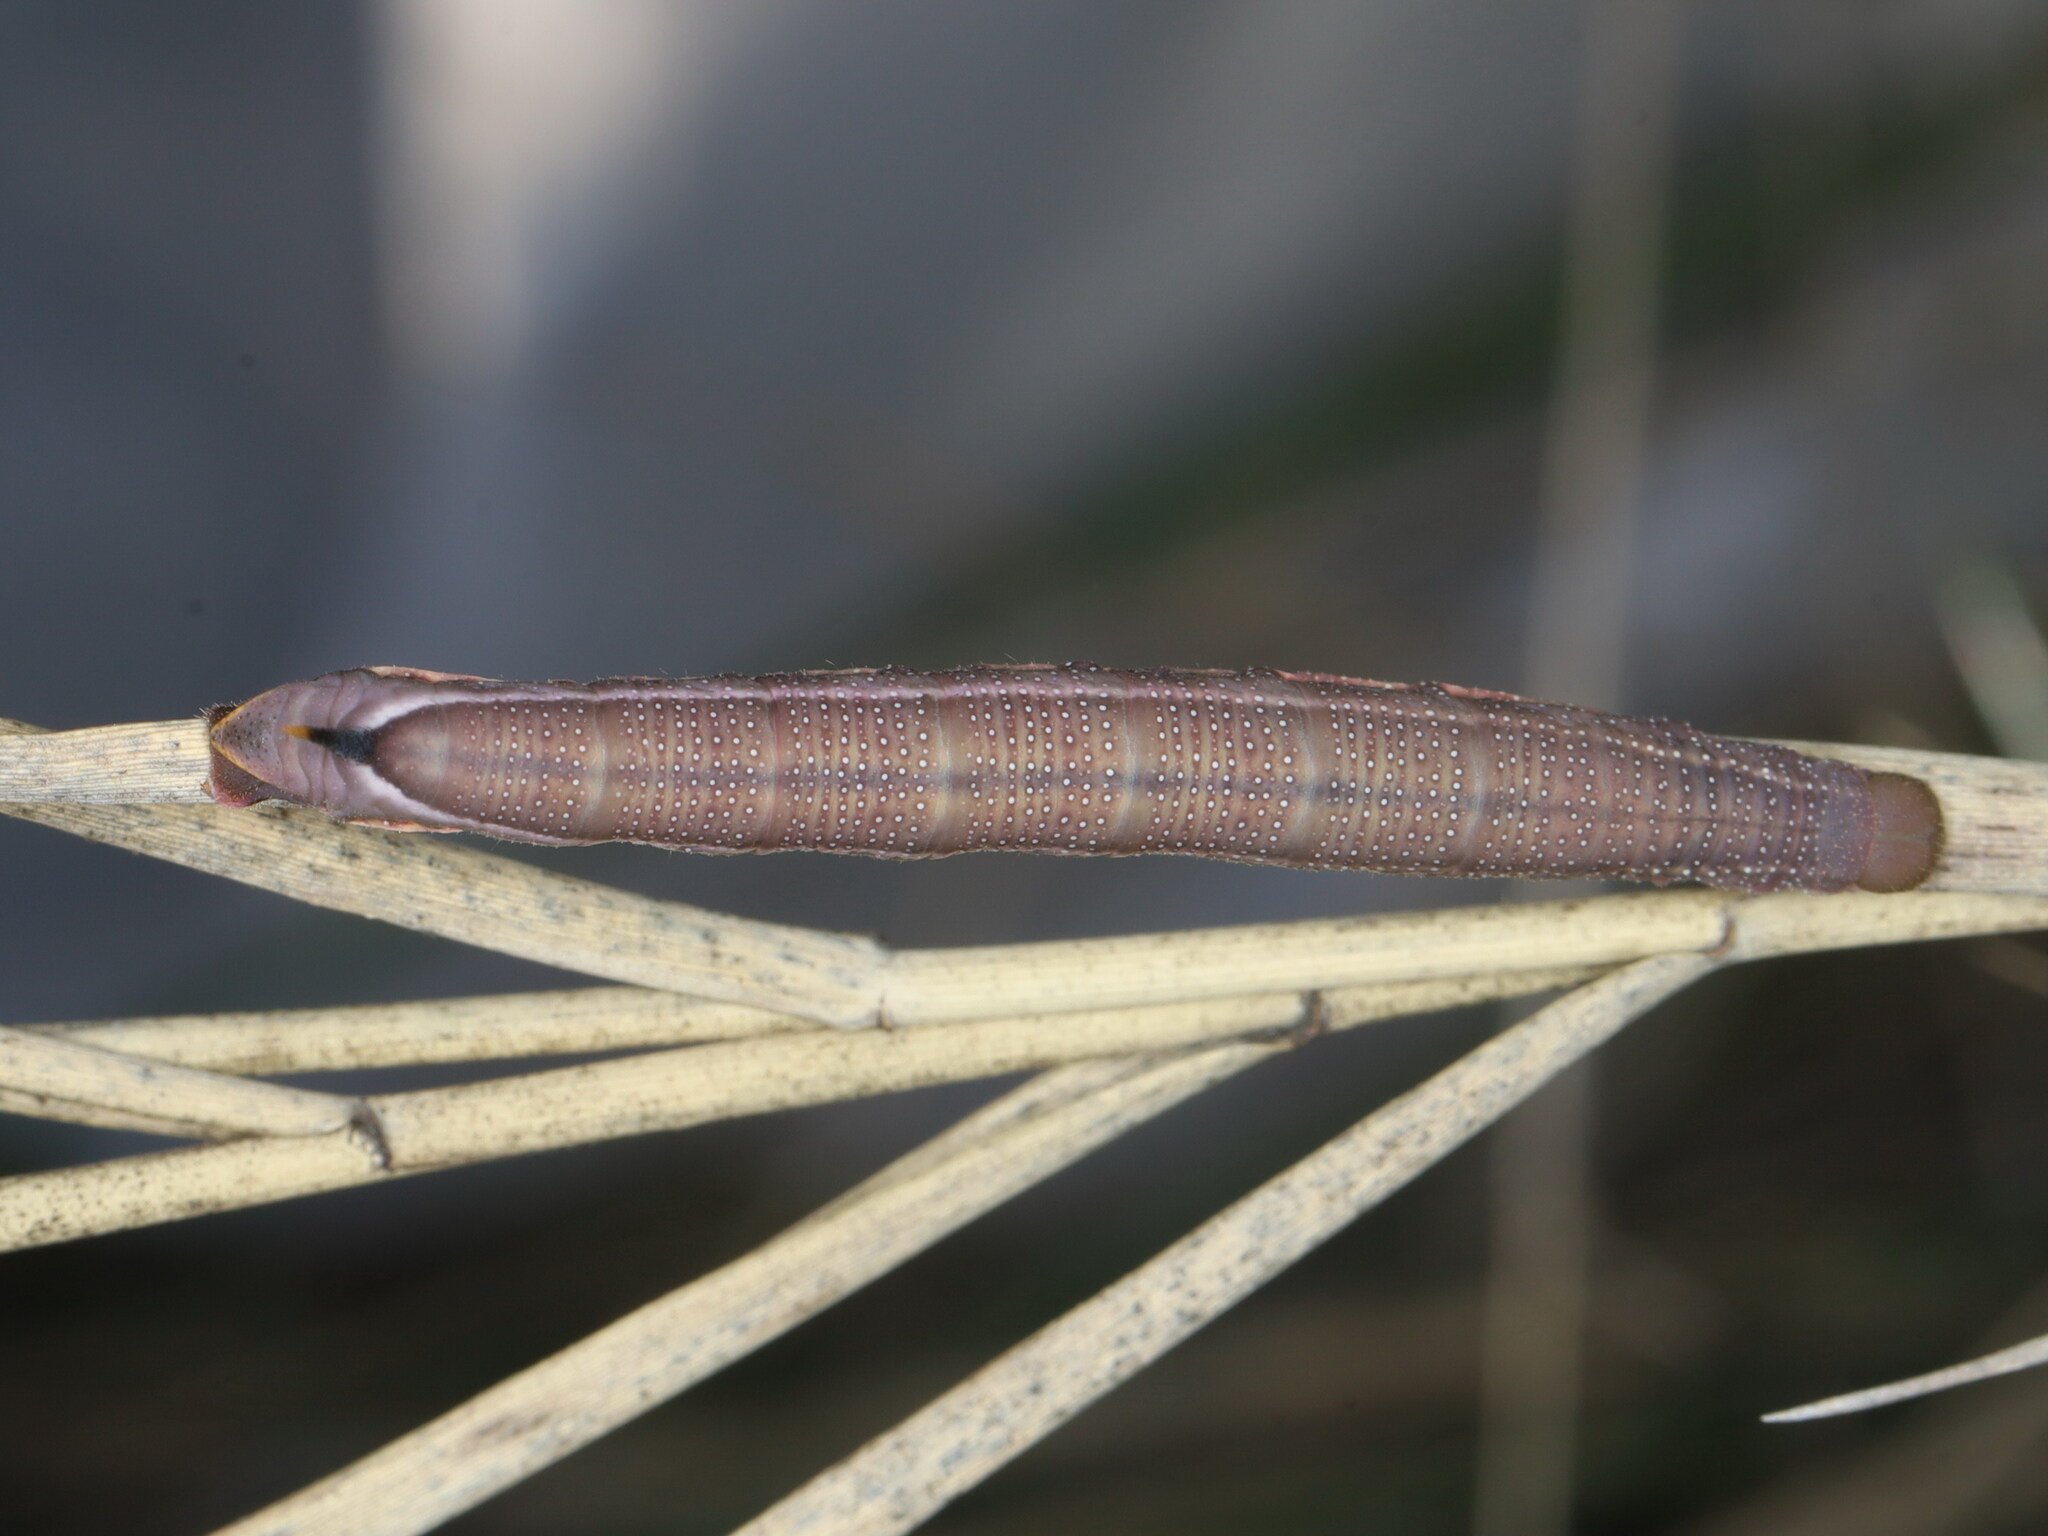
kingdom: Animalia
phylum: Arthropoda
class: Insecta
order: Lepidoptera
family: Sphingidae
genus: Macroglossum
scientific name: Macroglossum stellatarum
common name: Humming-bird hawk-moth
